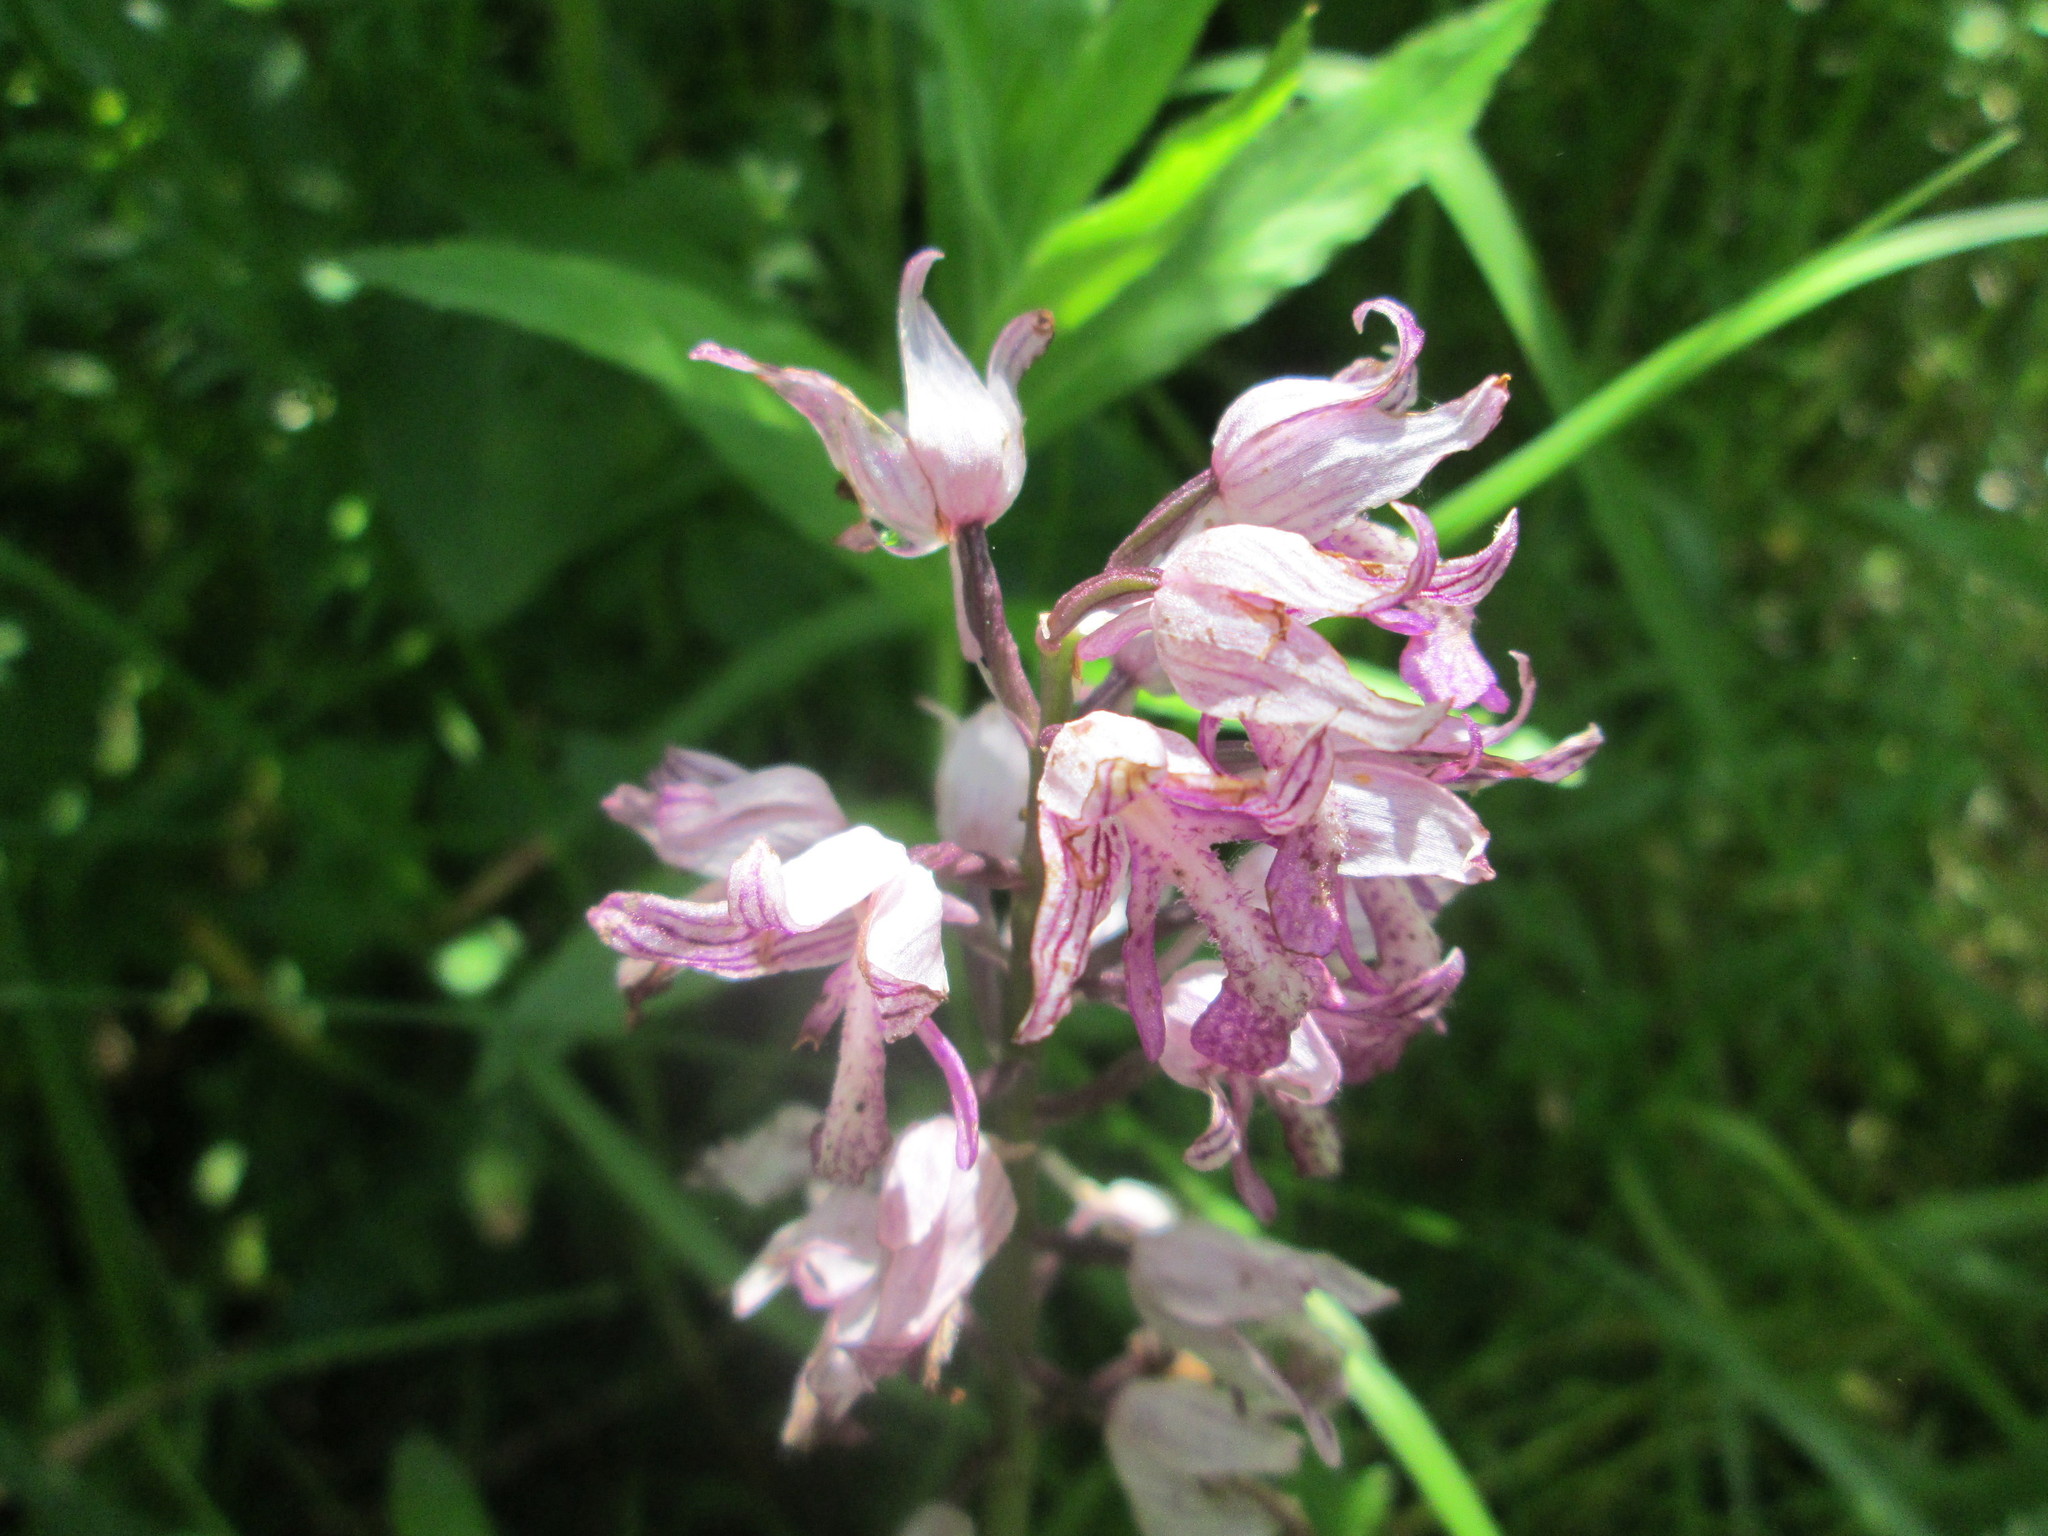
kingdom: Plantae
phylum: Tracheophyta
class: Liliopsida
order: Asparagales
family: Orchidaceae
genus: Orchis
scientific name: Orchis militaris
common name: Military orchid
